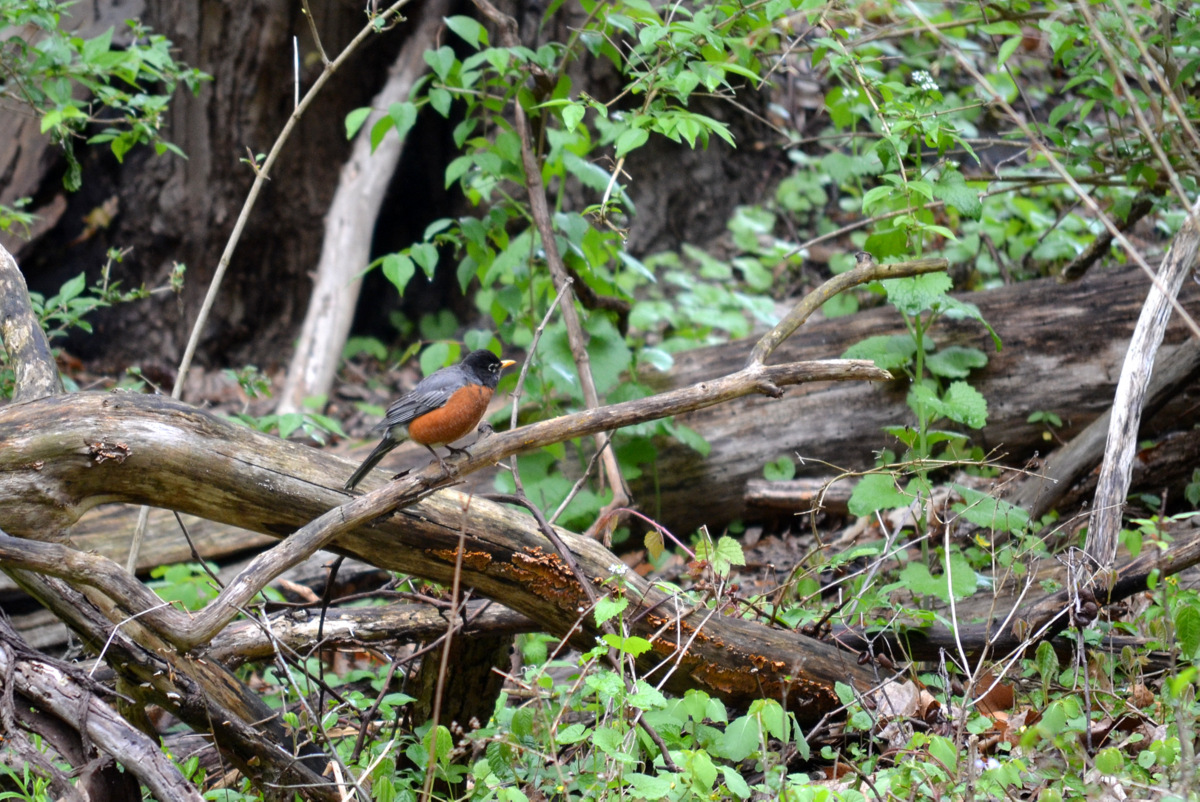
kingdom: Animalia
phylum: Chordata
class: Aves
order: Passeriformes
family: Turdidae
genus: Turdus
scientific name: Turdus migratorius
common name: American robin
